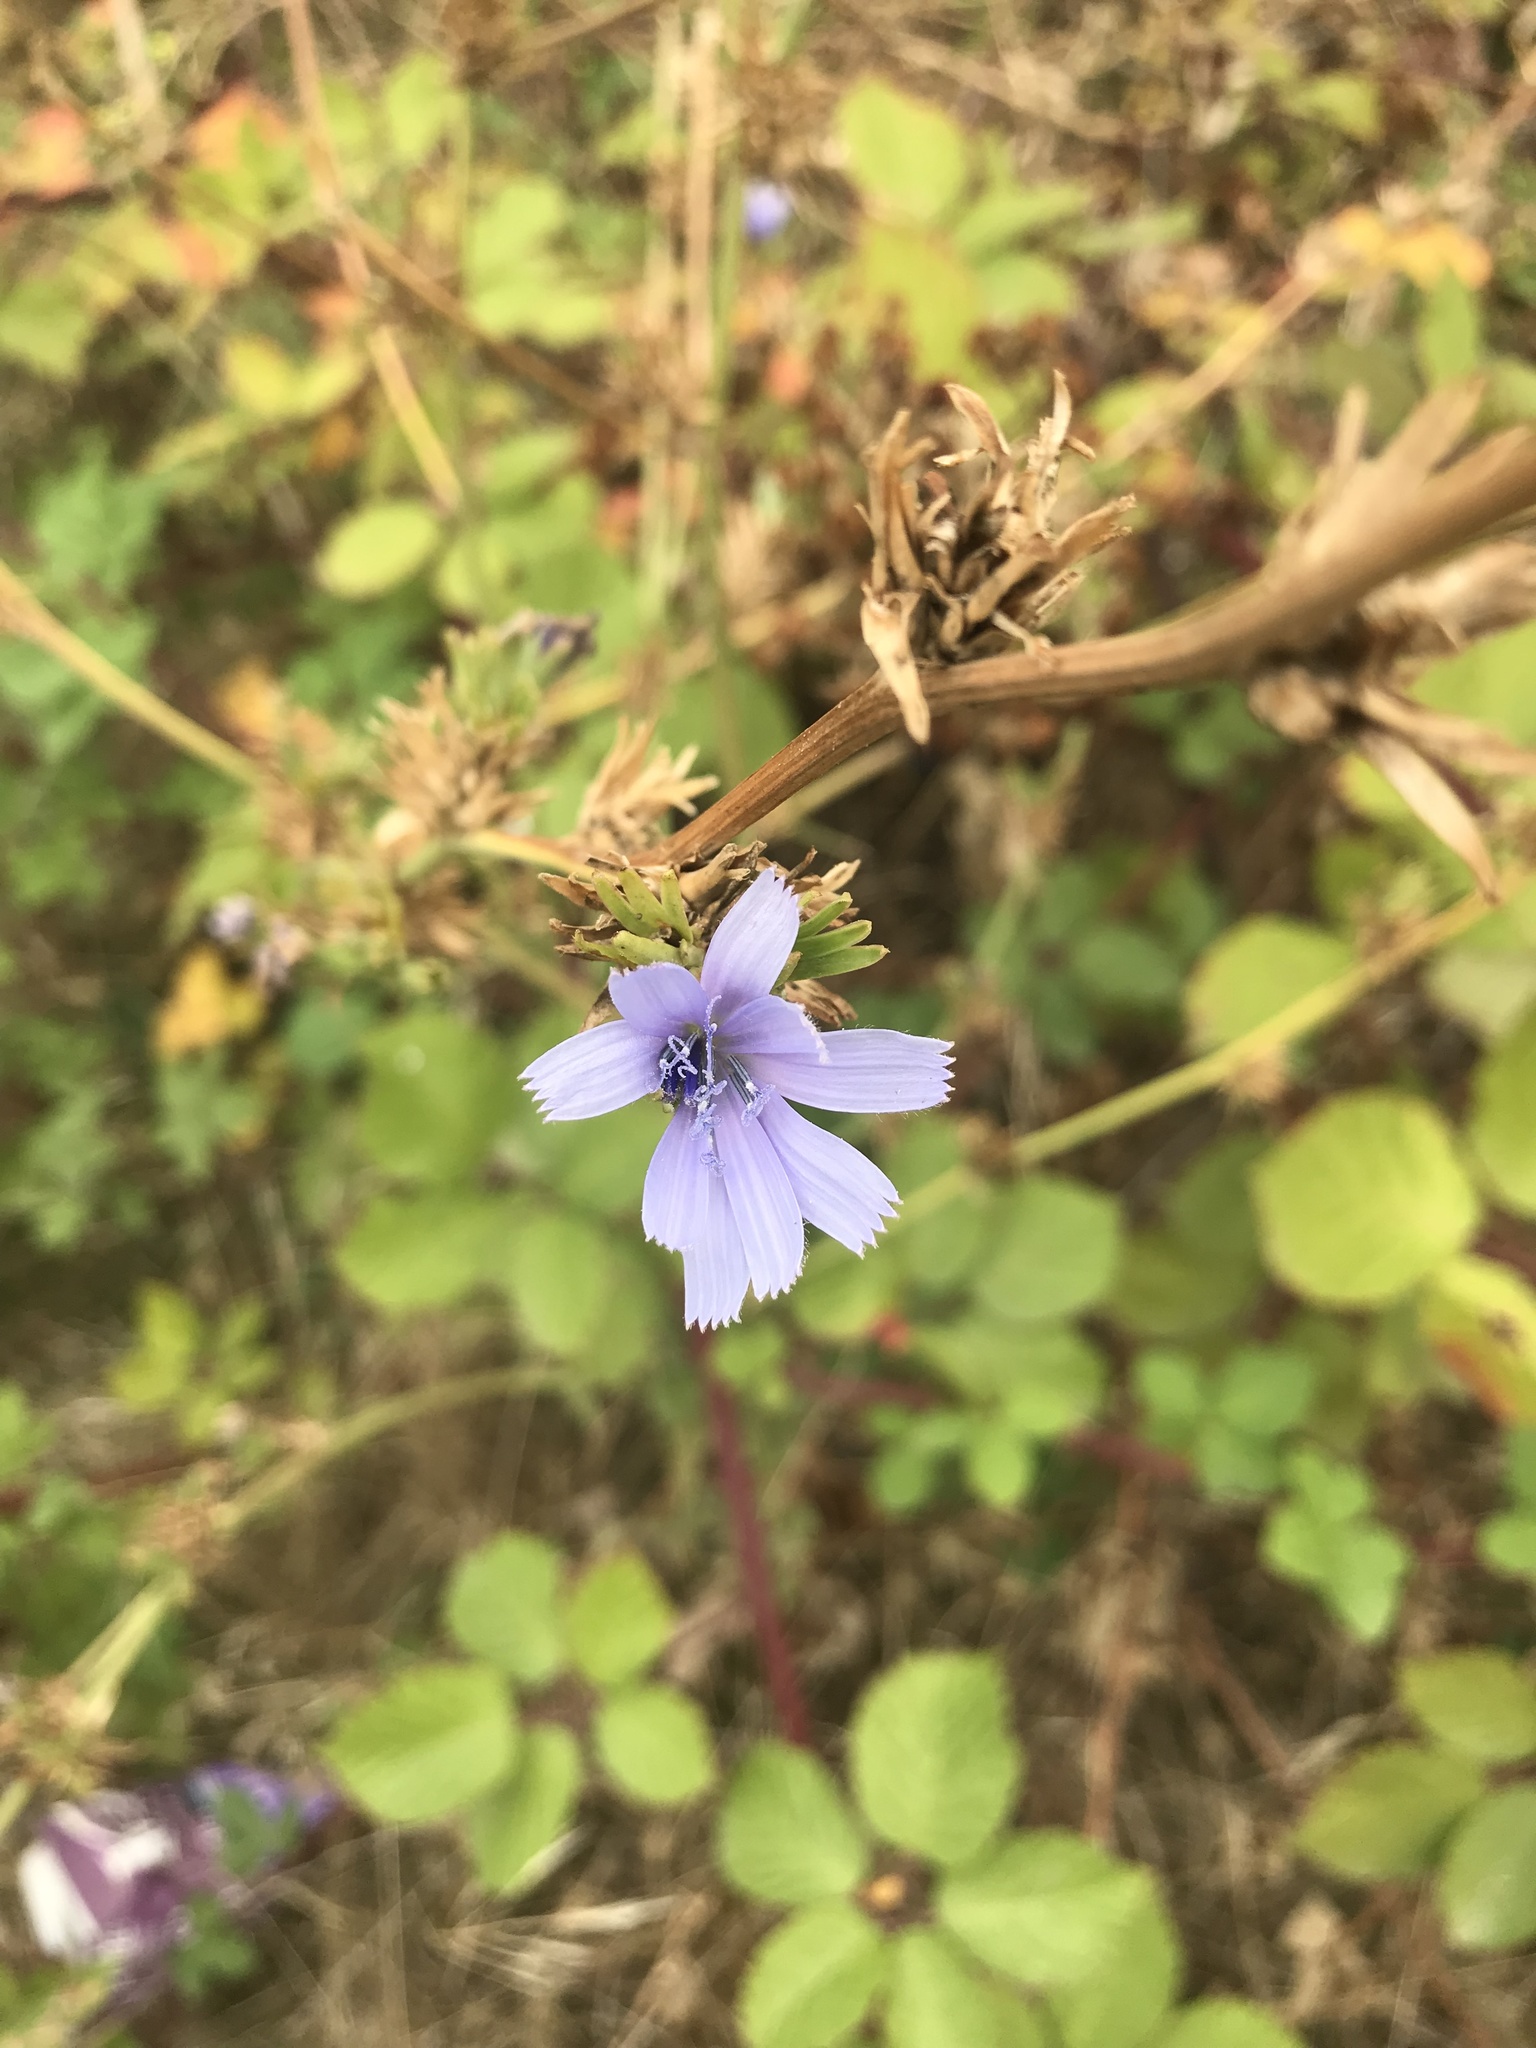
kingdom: Plantae
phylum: Tracheophyta
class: Magnoliopsida
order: Asterales
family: Asteraceae
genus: Cichorium
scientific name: Cichorium intybus
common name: Chicory
